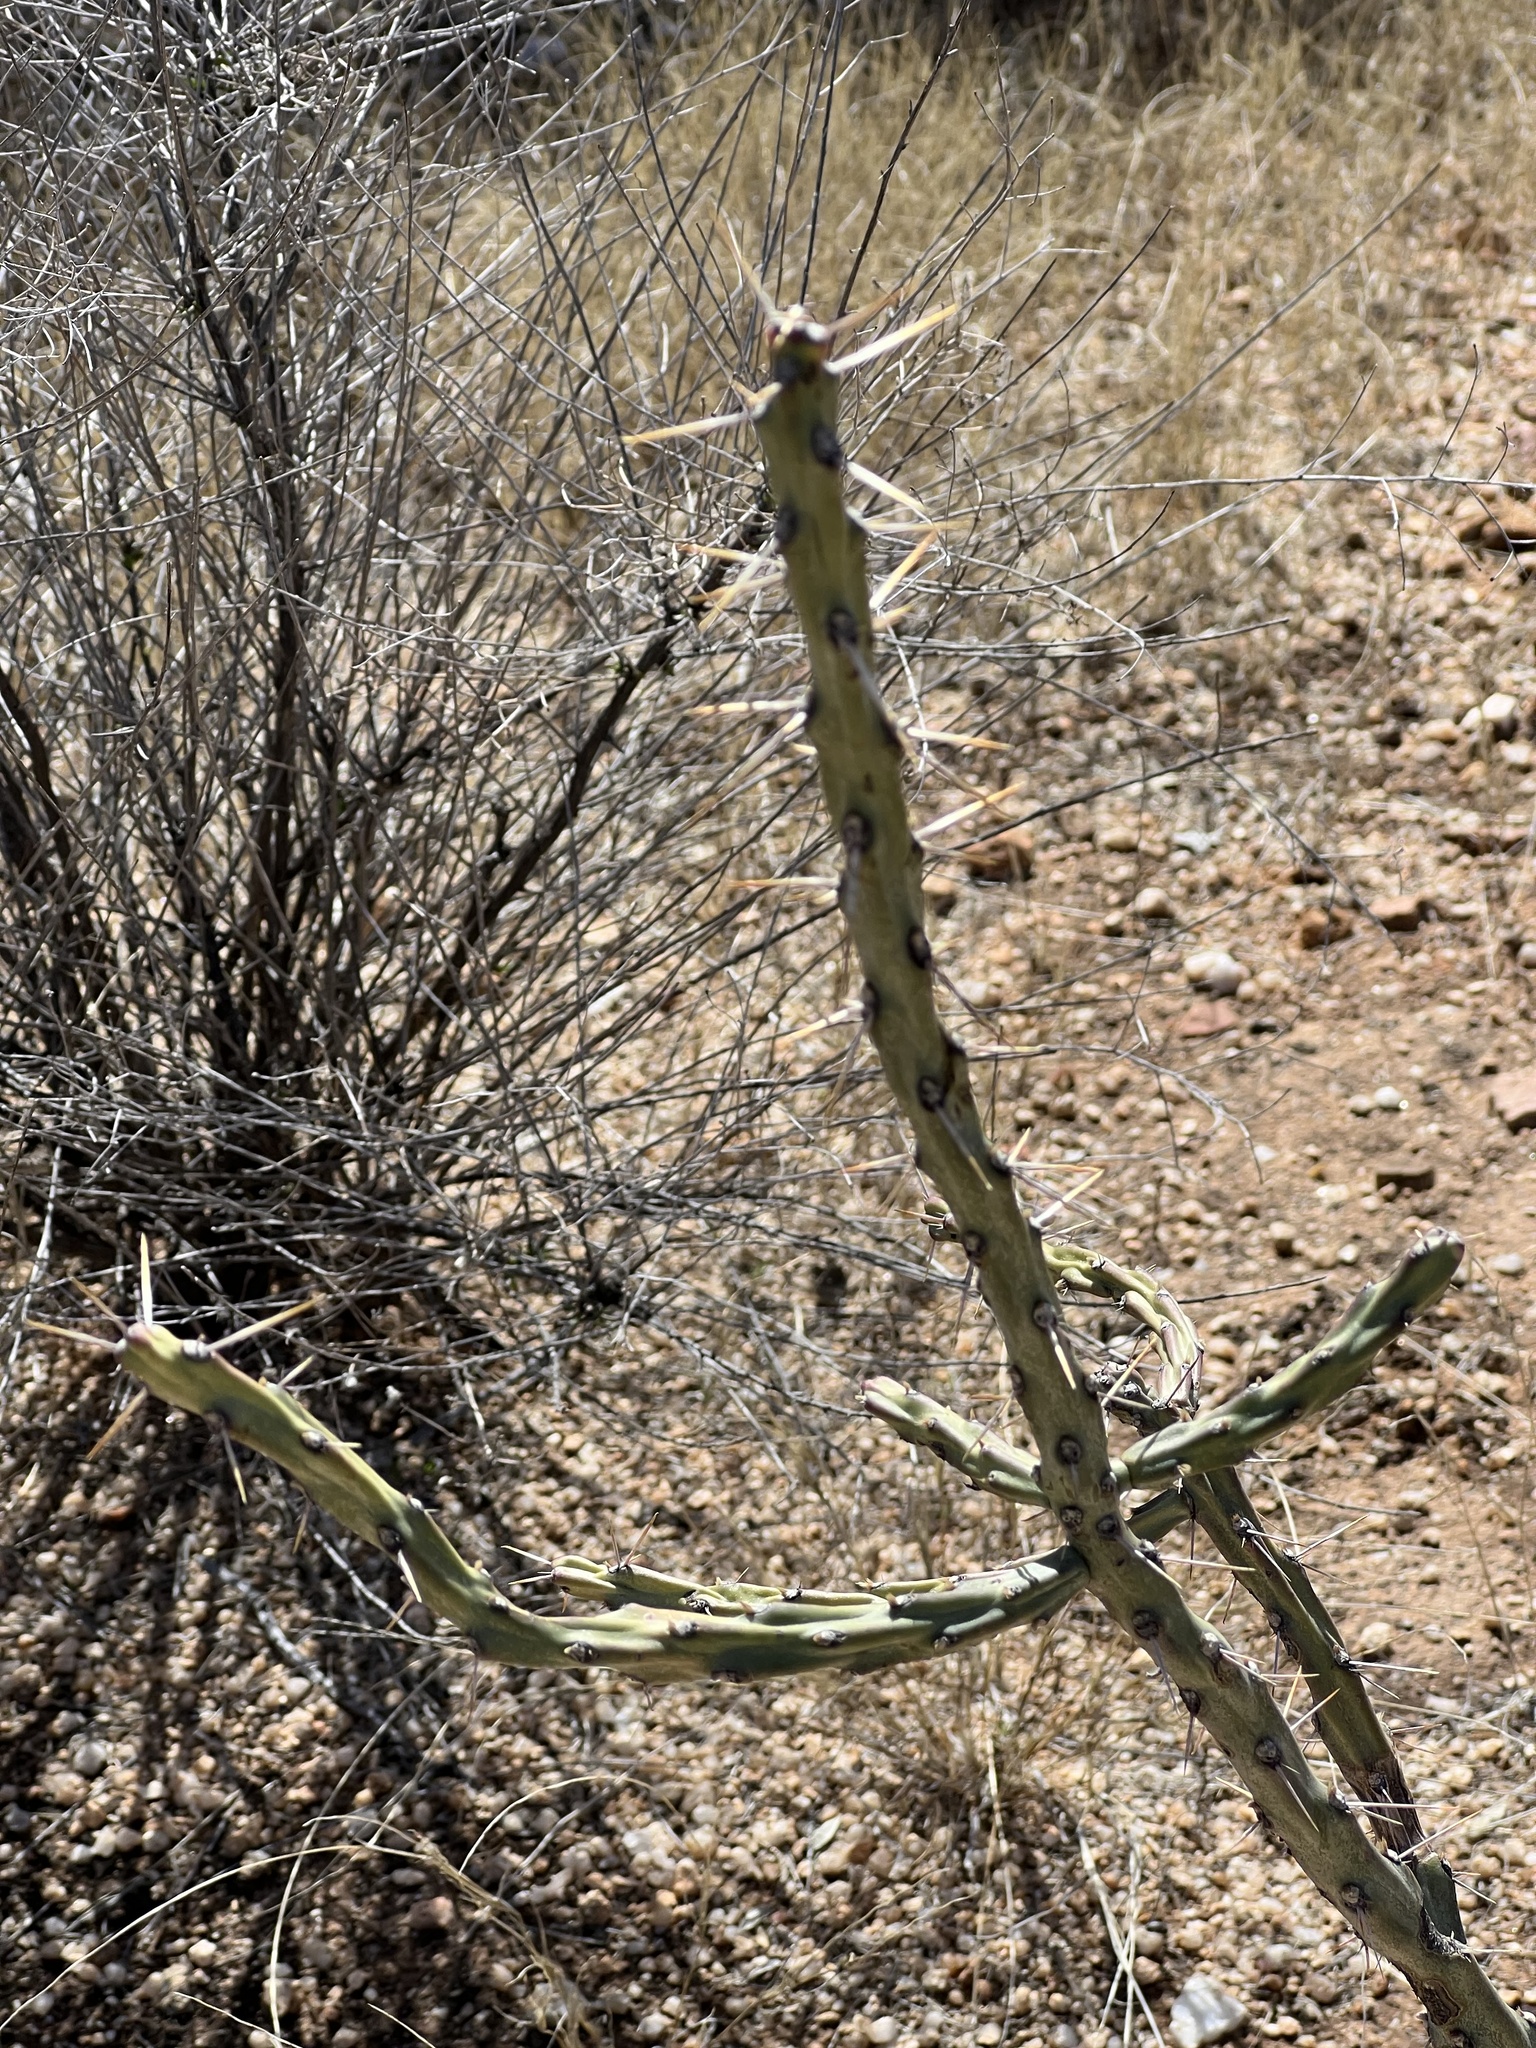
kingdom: Plantae
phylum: Tracheophyta
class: Magnoliopsida
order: Caryophyllales
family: Cactaceae
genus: Cylindropuntia
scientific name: Cylindropuntia arbuscula
